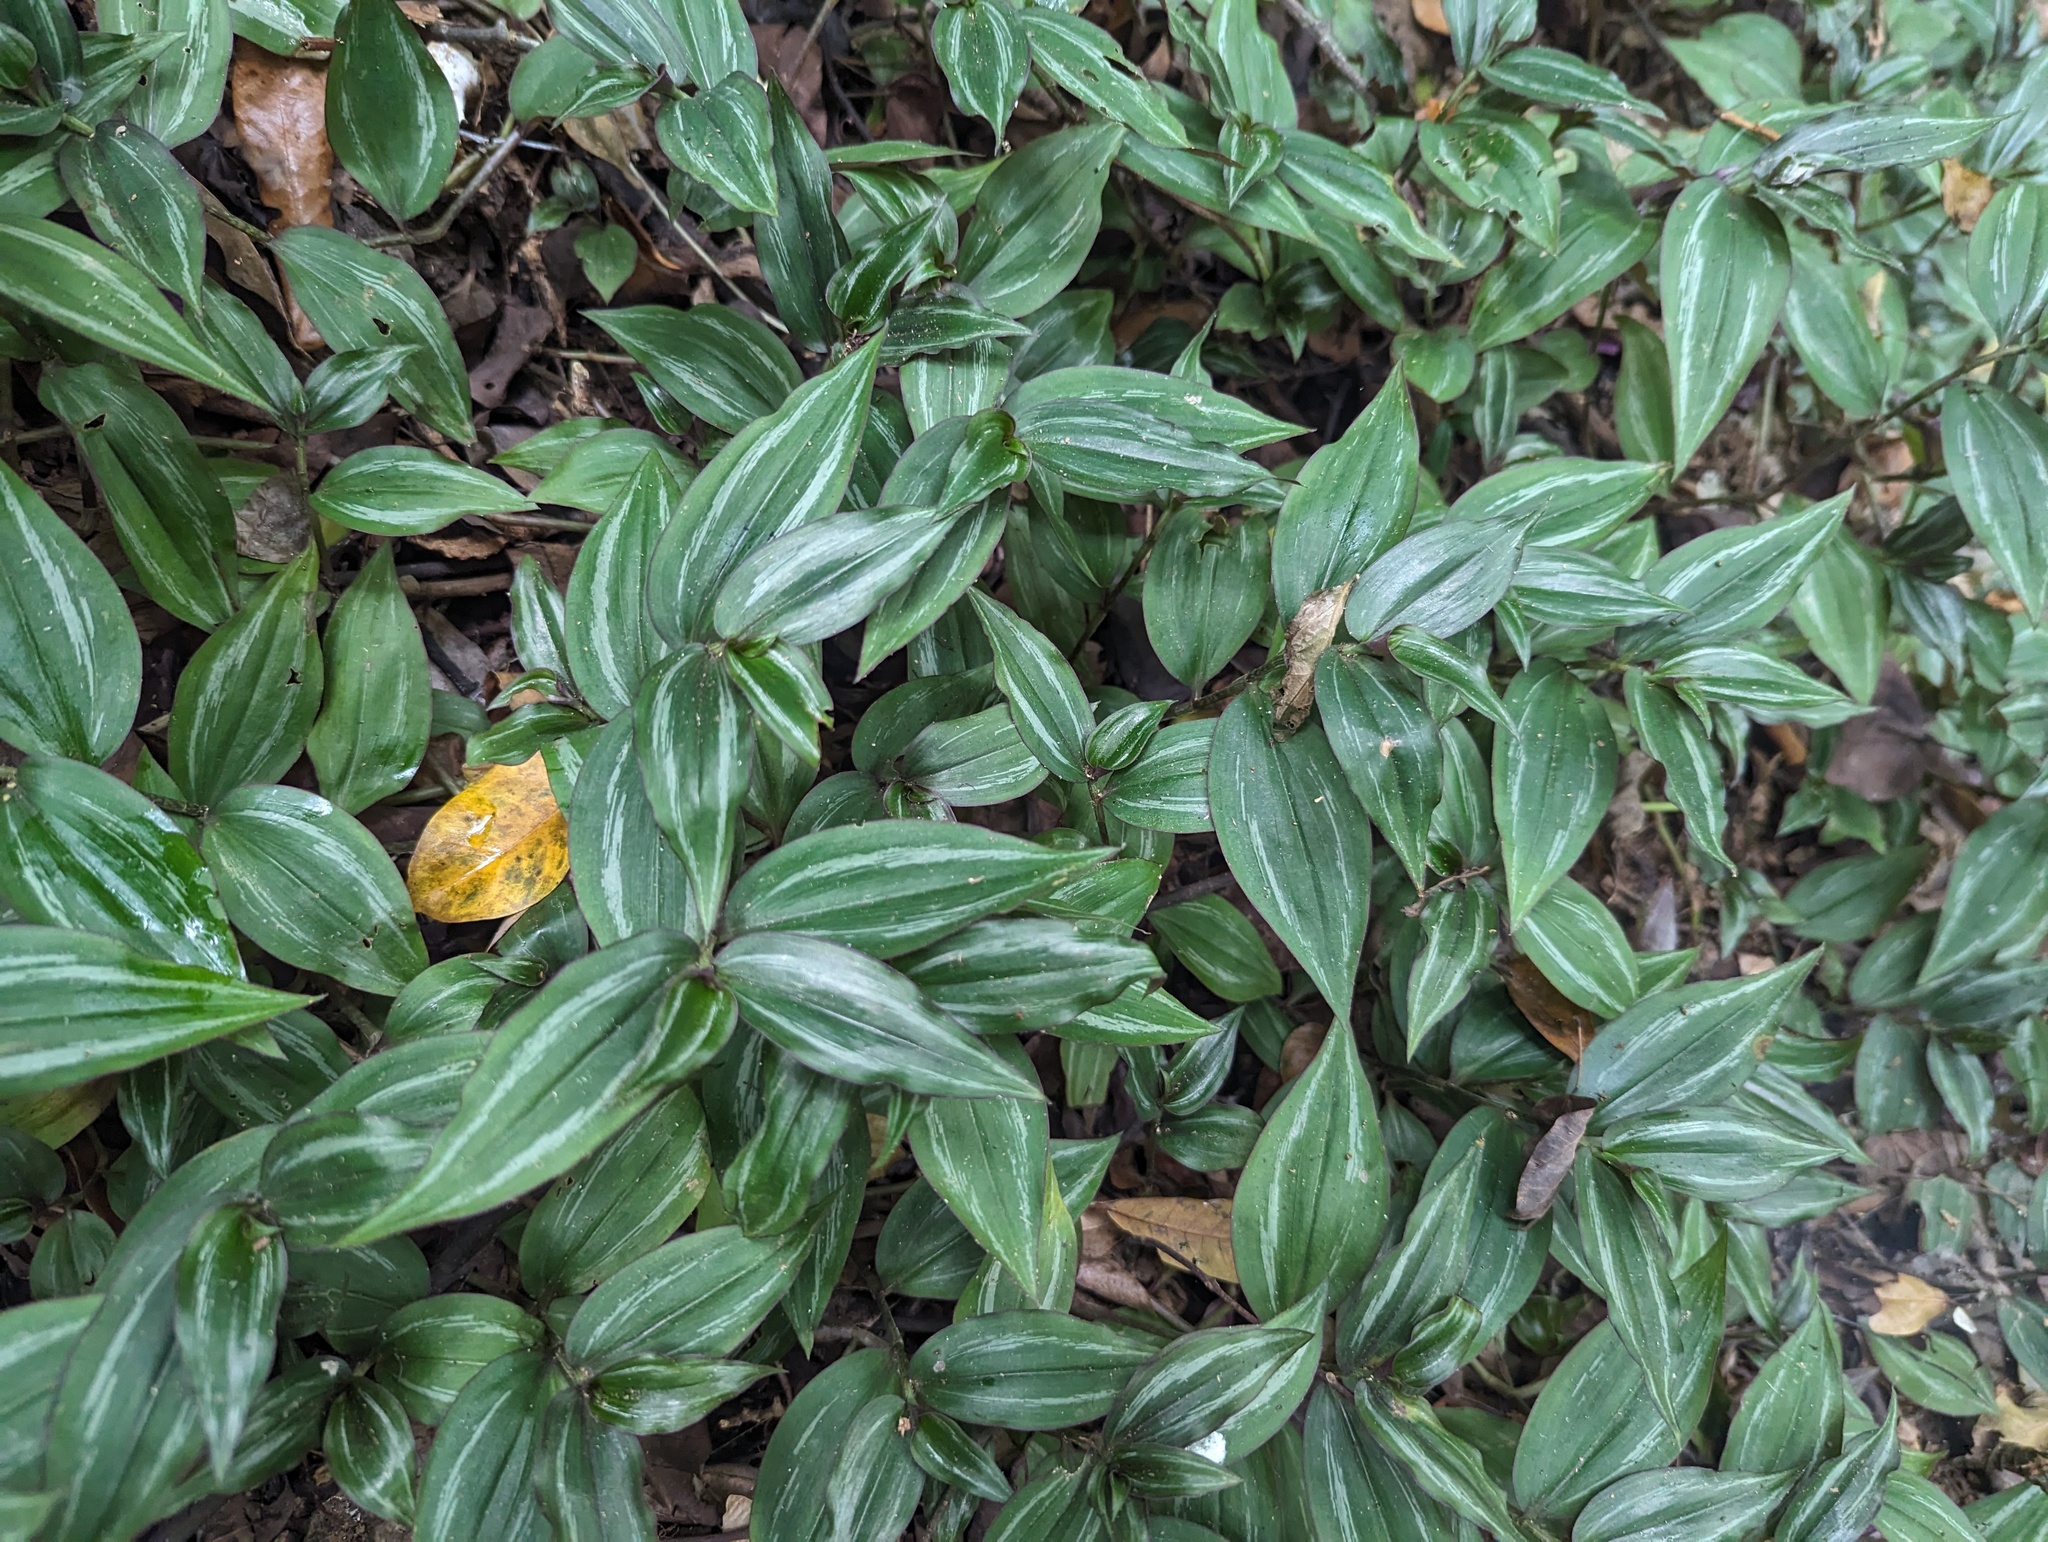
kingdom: Plantae
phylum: Tracheophyta
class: Liliopsida
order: Commelinales
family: Commelinaceae
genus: Tradescantia
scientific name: Tradescantia zebrina
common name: Inchplant
